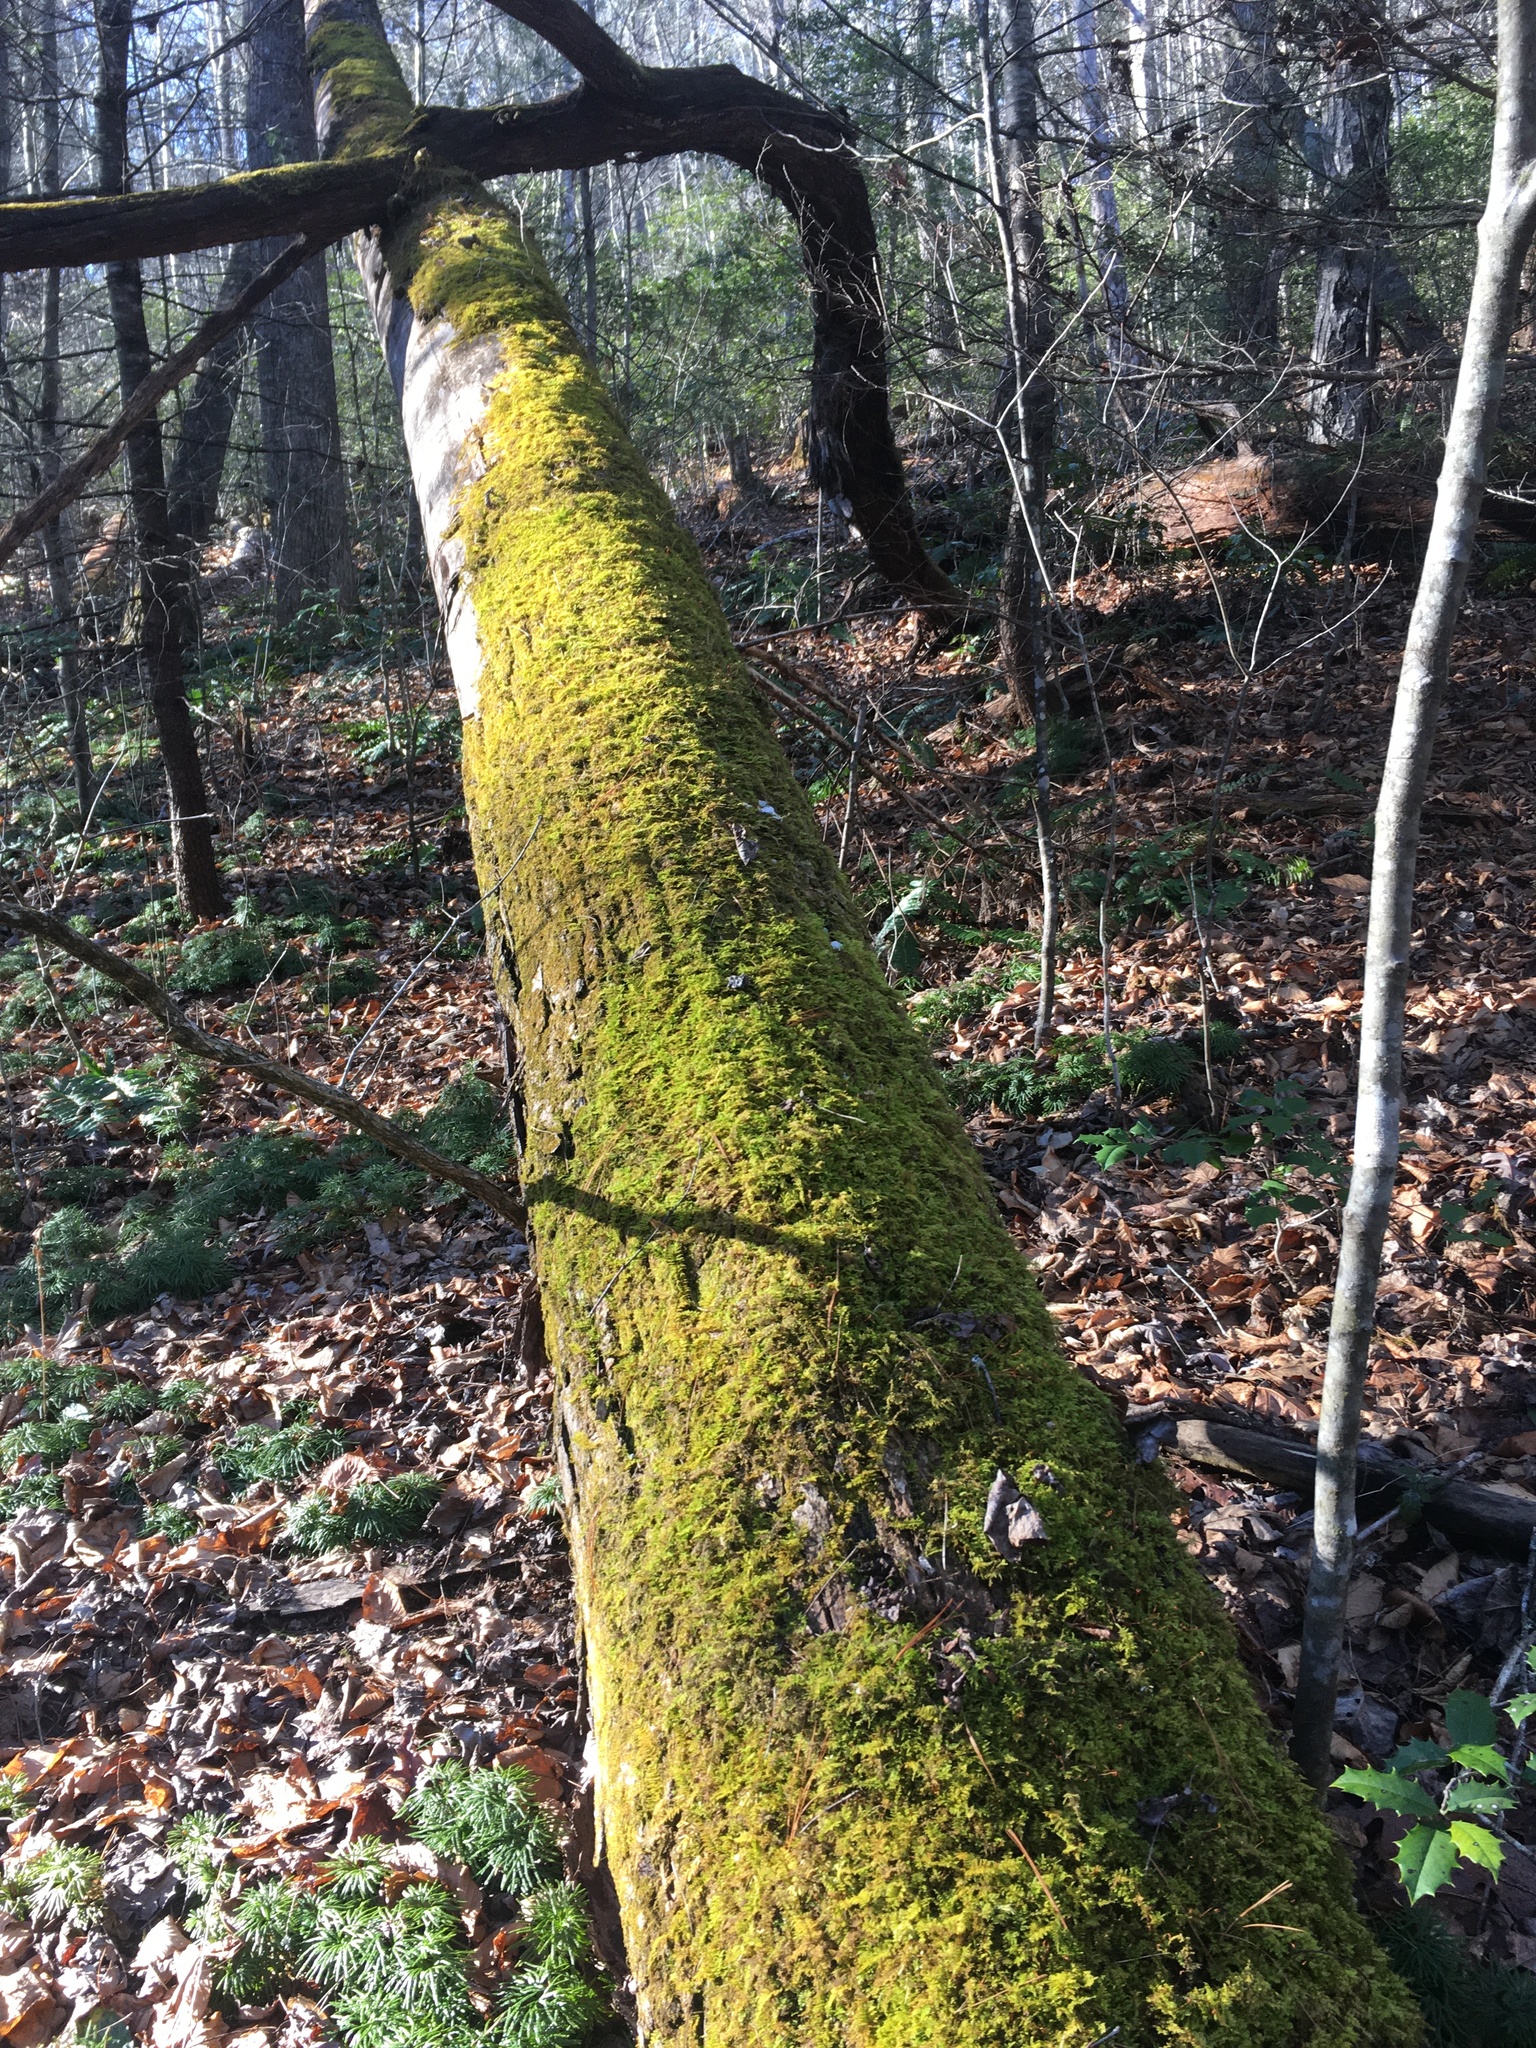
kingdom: Plantae
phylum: Bryophyta
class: Bryopsida
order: Hypnales
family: Thuidiaceae
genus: Thuidium
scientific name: Thuidium delicatulum
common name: Delicate fern moss
